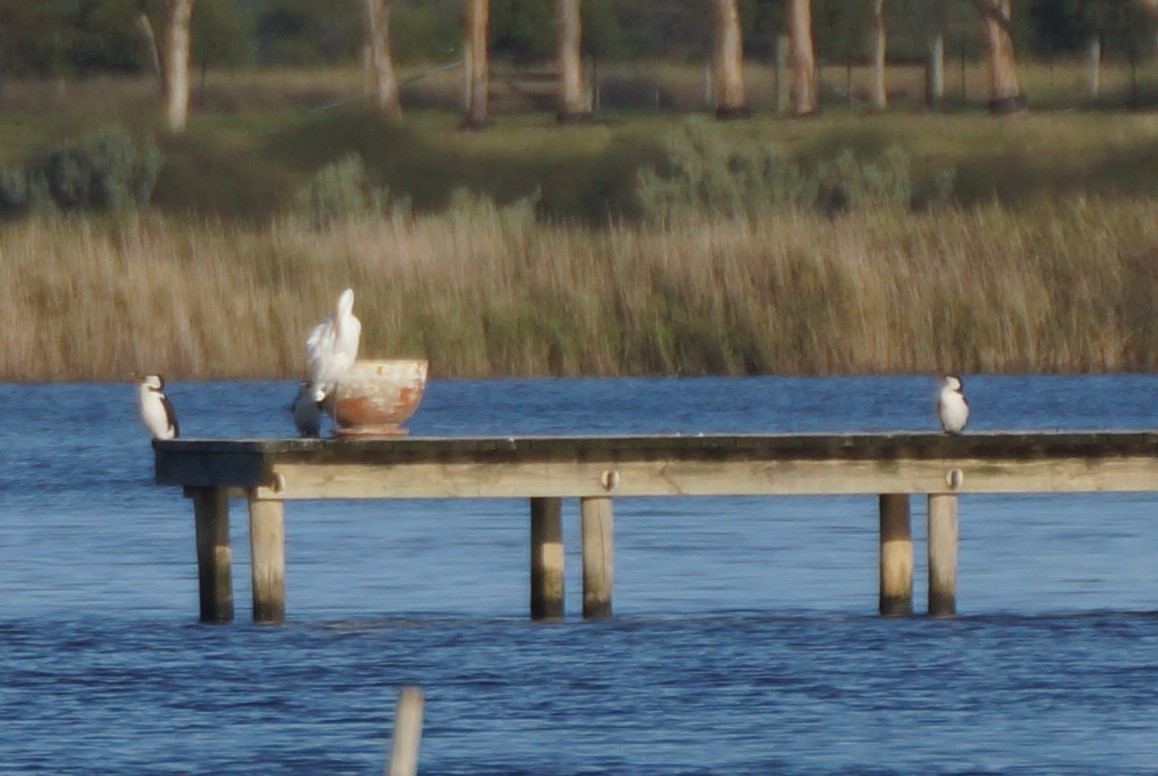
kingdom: Animalia
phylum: Chordata
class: Aves
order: Suliformes
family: Phalacrocoracidae
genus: Microcarbo
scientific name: Microcarbo melanoleucos
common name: Little pied cormorant
